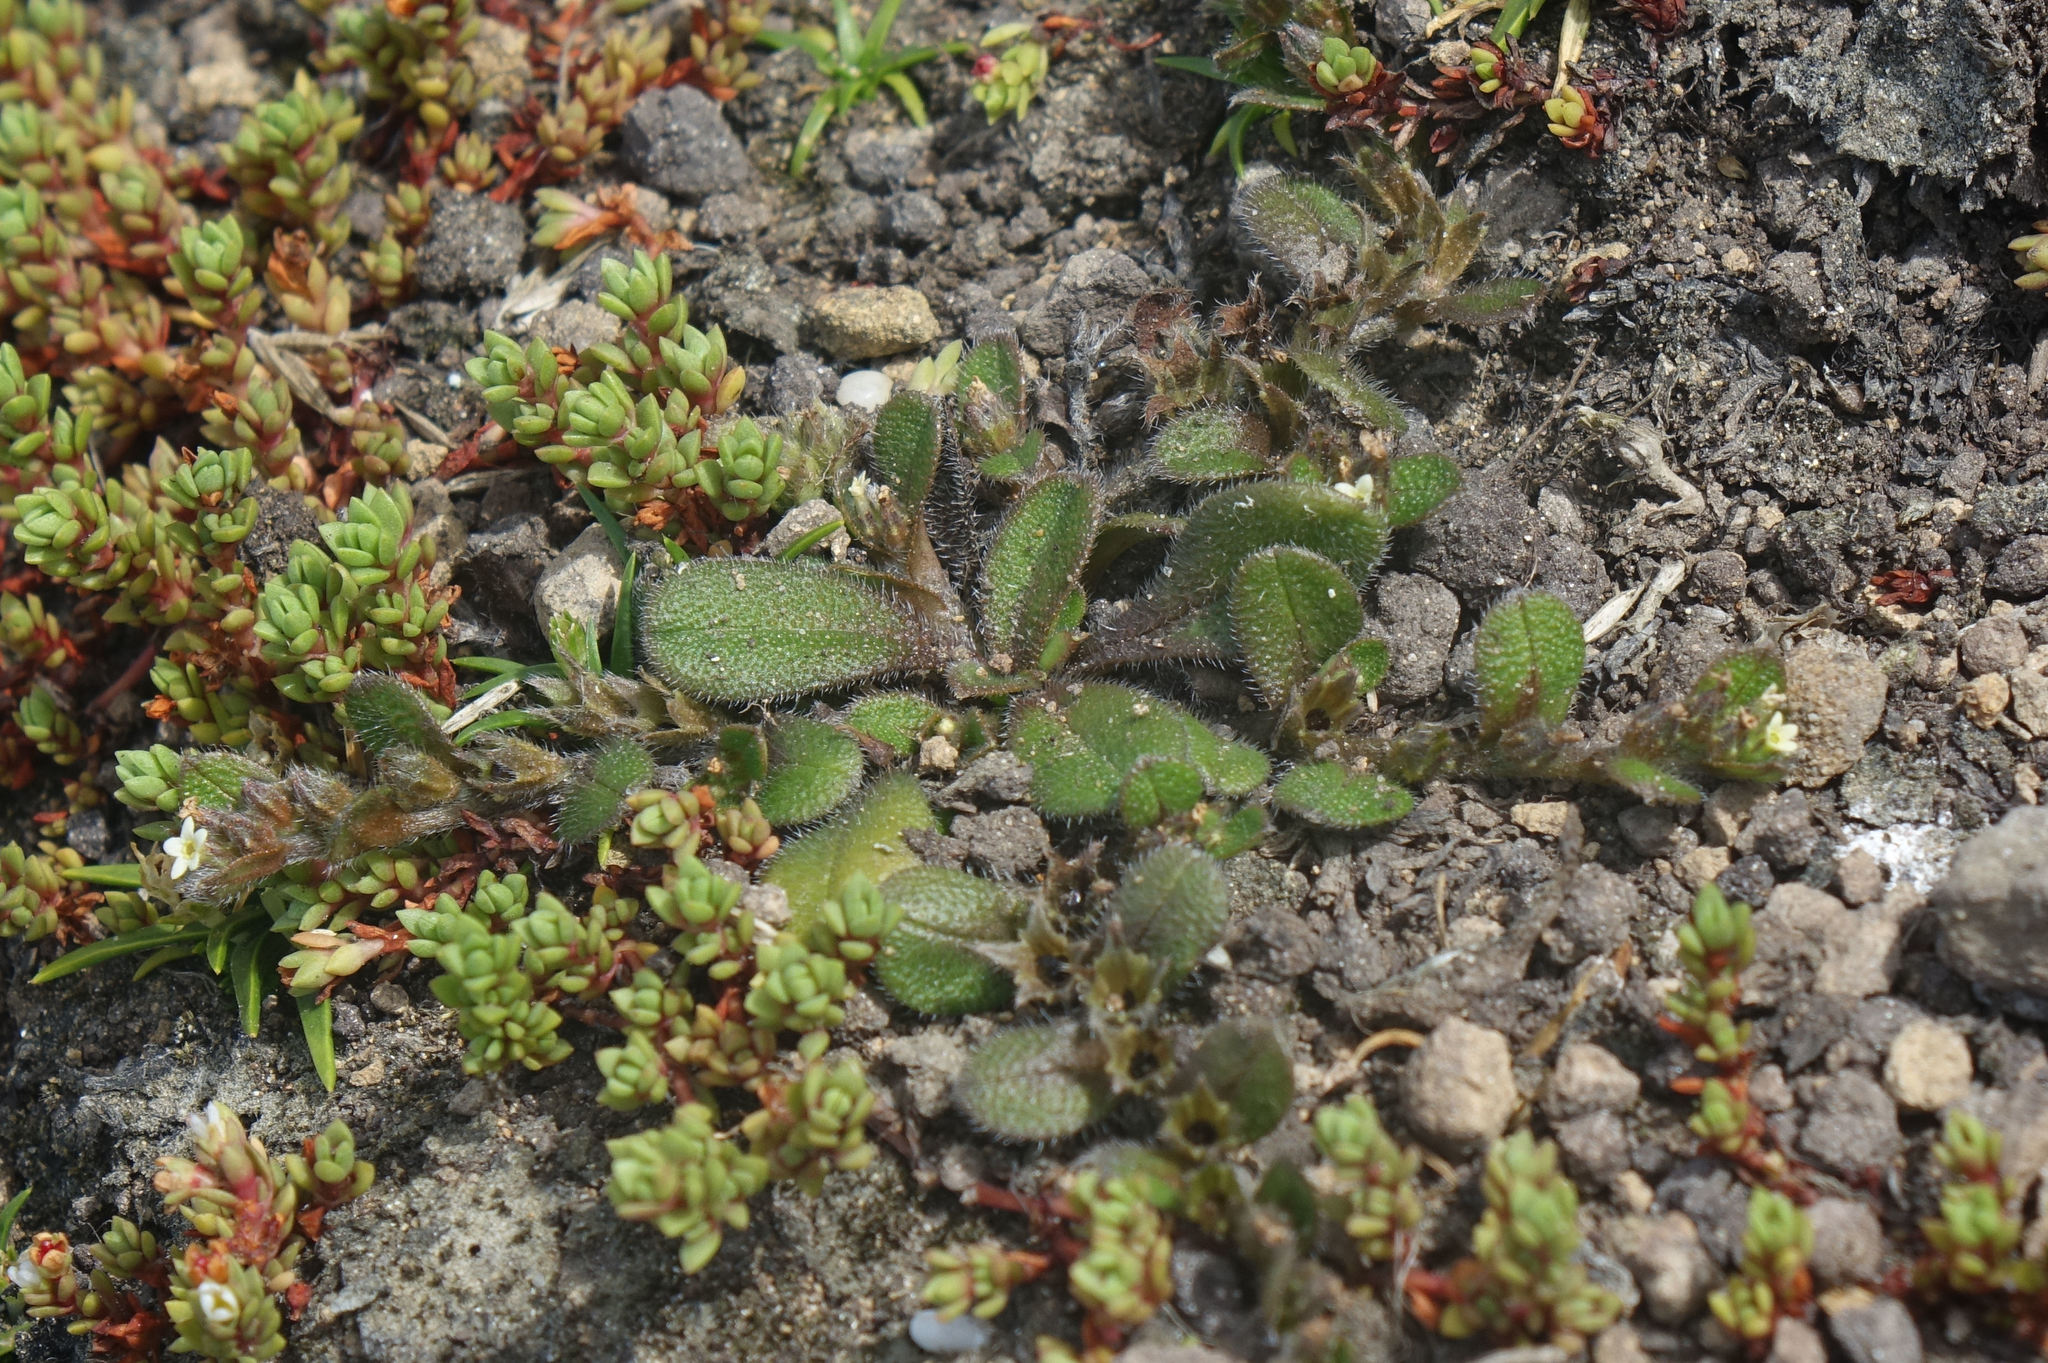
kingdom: Plantae
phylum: Tracheophyta
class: Magnoliopsida
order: Boraginales
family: Boraginaceae
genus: Myosotis
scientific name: Myosotis antarctica
